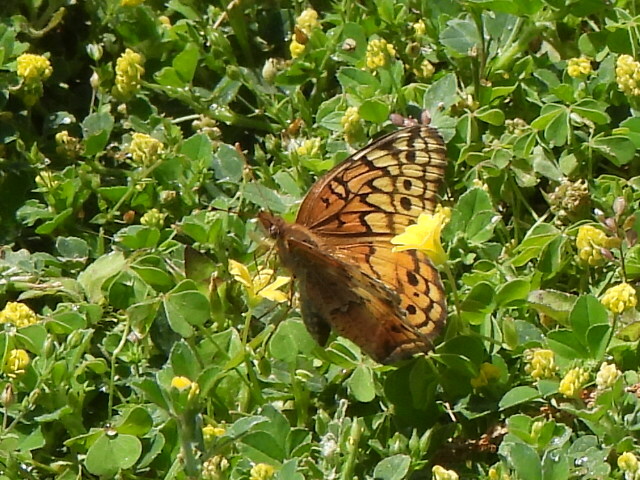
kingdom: Animalia
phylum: Arthropoda
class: Insecta
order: Lepidoptera
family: Nymphalidae
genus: Euptoieta
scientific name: Euptoieta claudia
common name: Variegated fritillary
